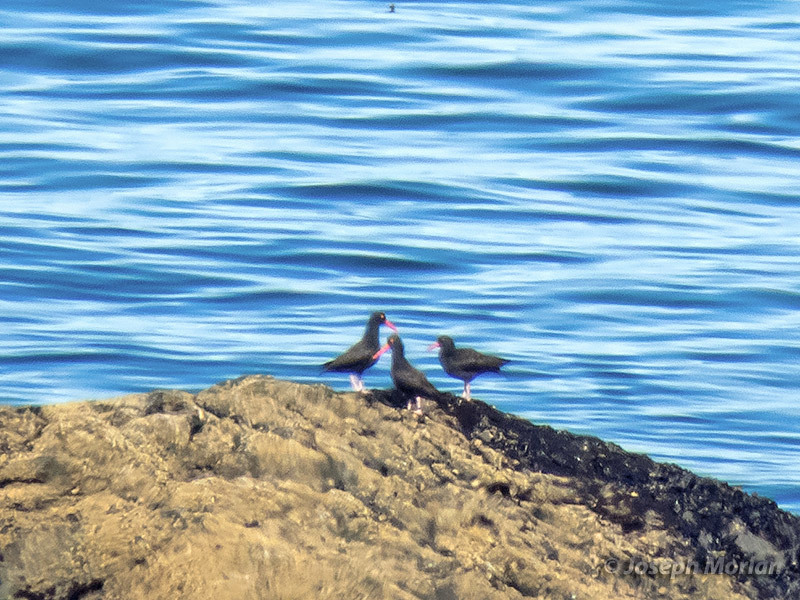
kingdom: Animalia
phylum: Chordata
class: Aves
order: Charadriiformes
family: Haematopodidae
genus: Haematopus
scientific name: Haematopus bachmani
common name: Black oystercatcher
